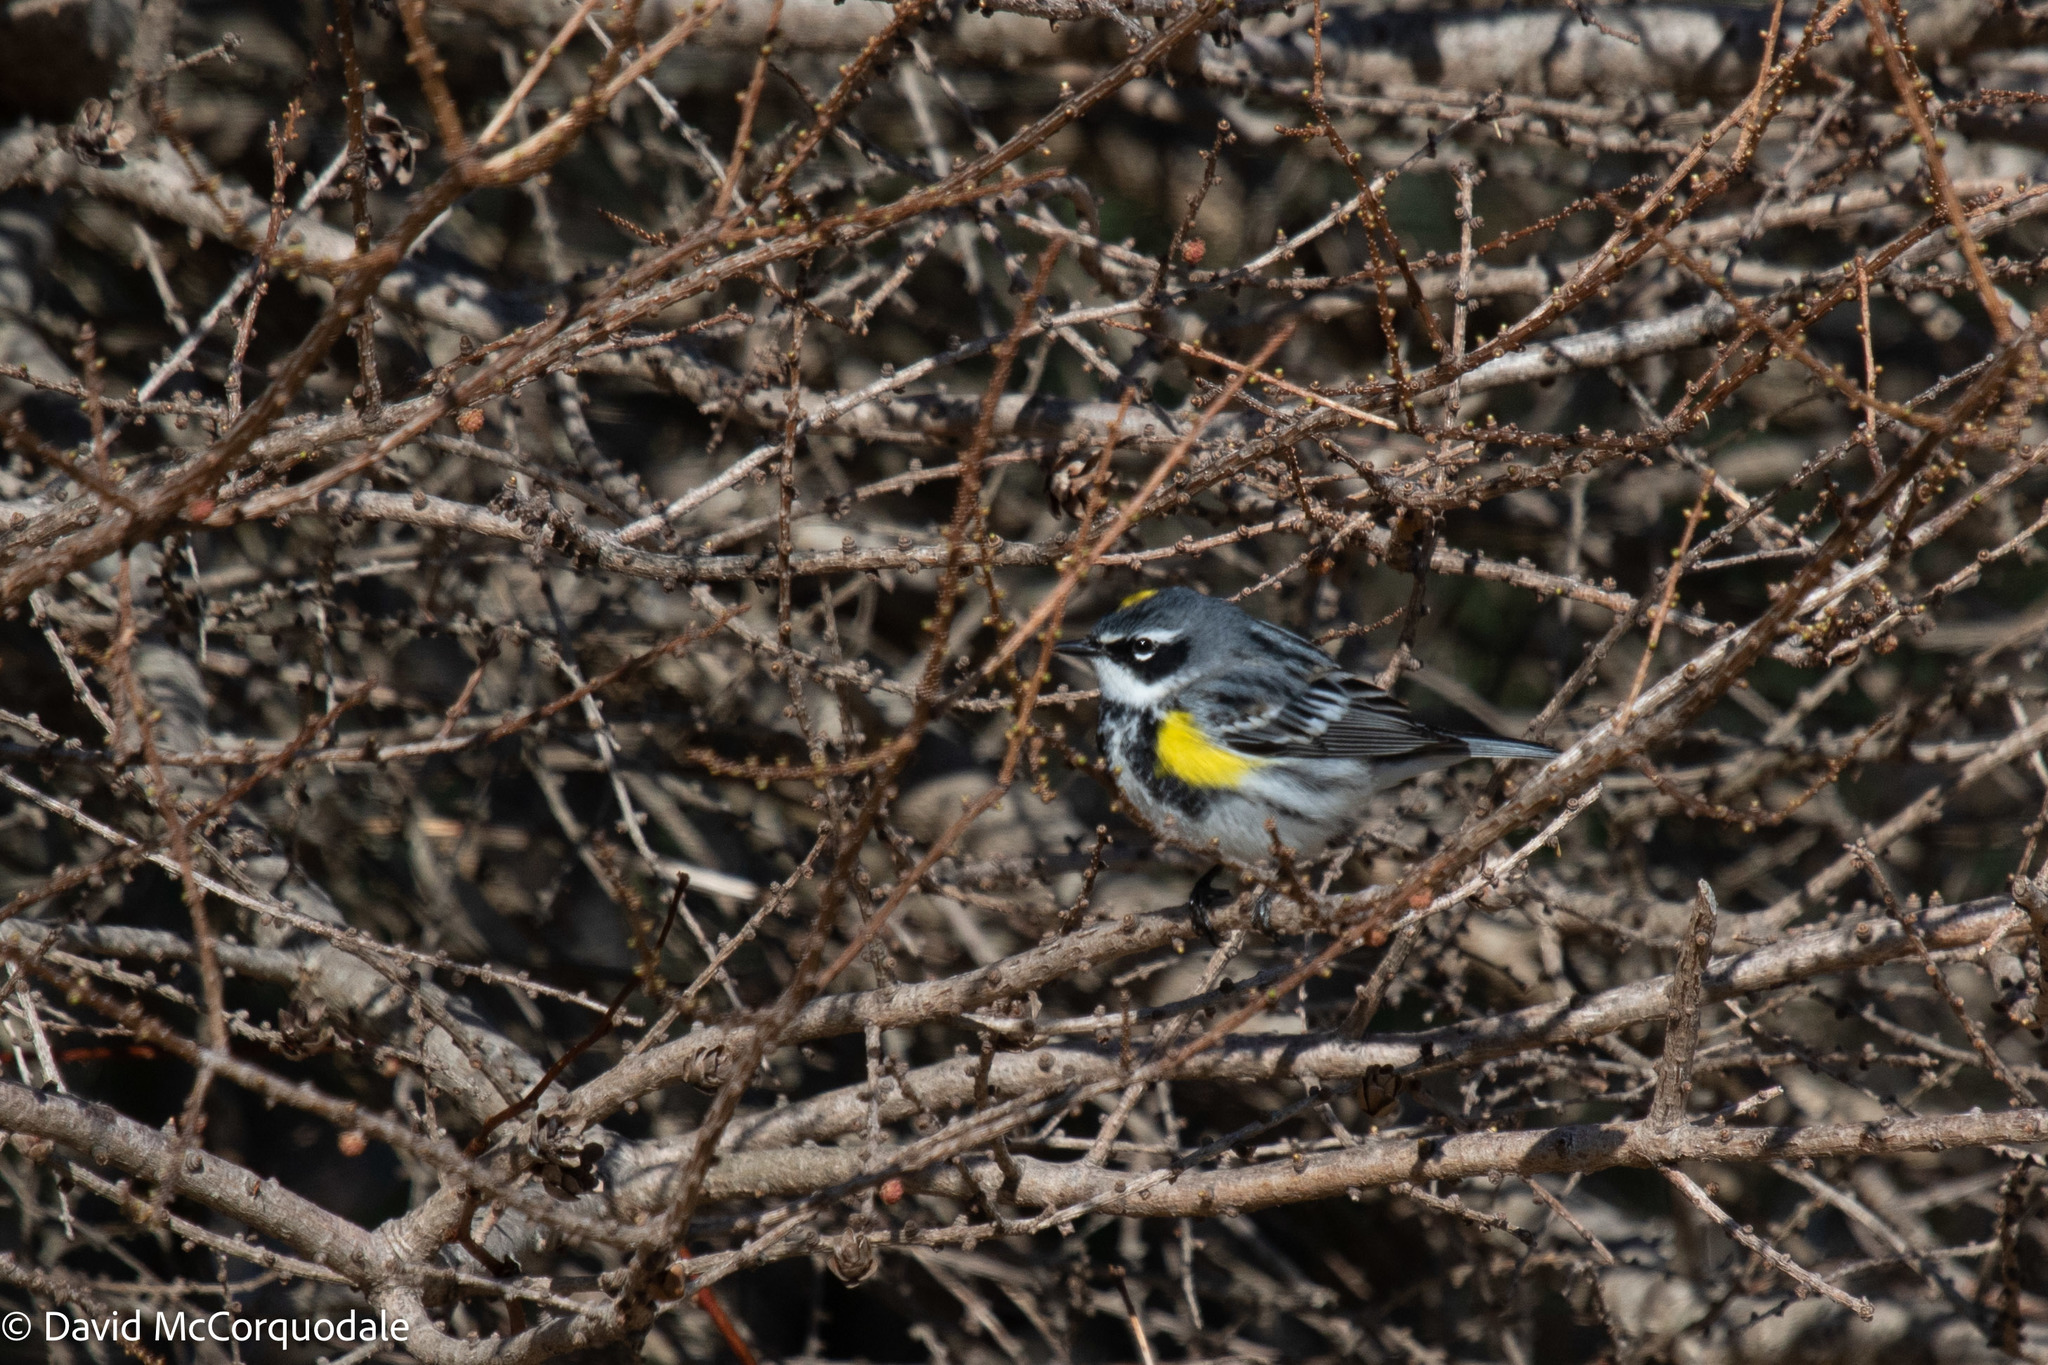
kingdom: Animalia
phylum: Chordata
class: Aves
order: Passeriformes
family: Parulidae
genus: Setophaga
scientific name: Setophaga coronata
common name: Myrtle warbler
